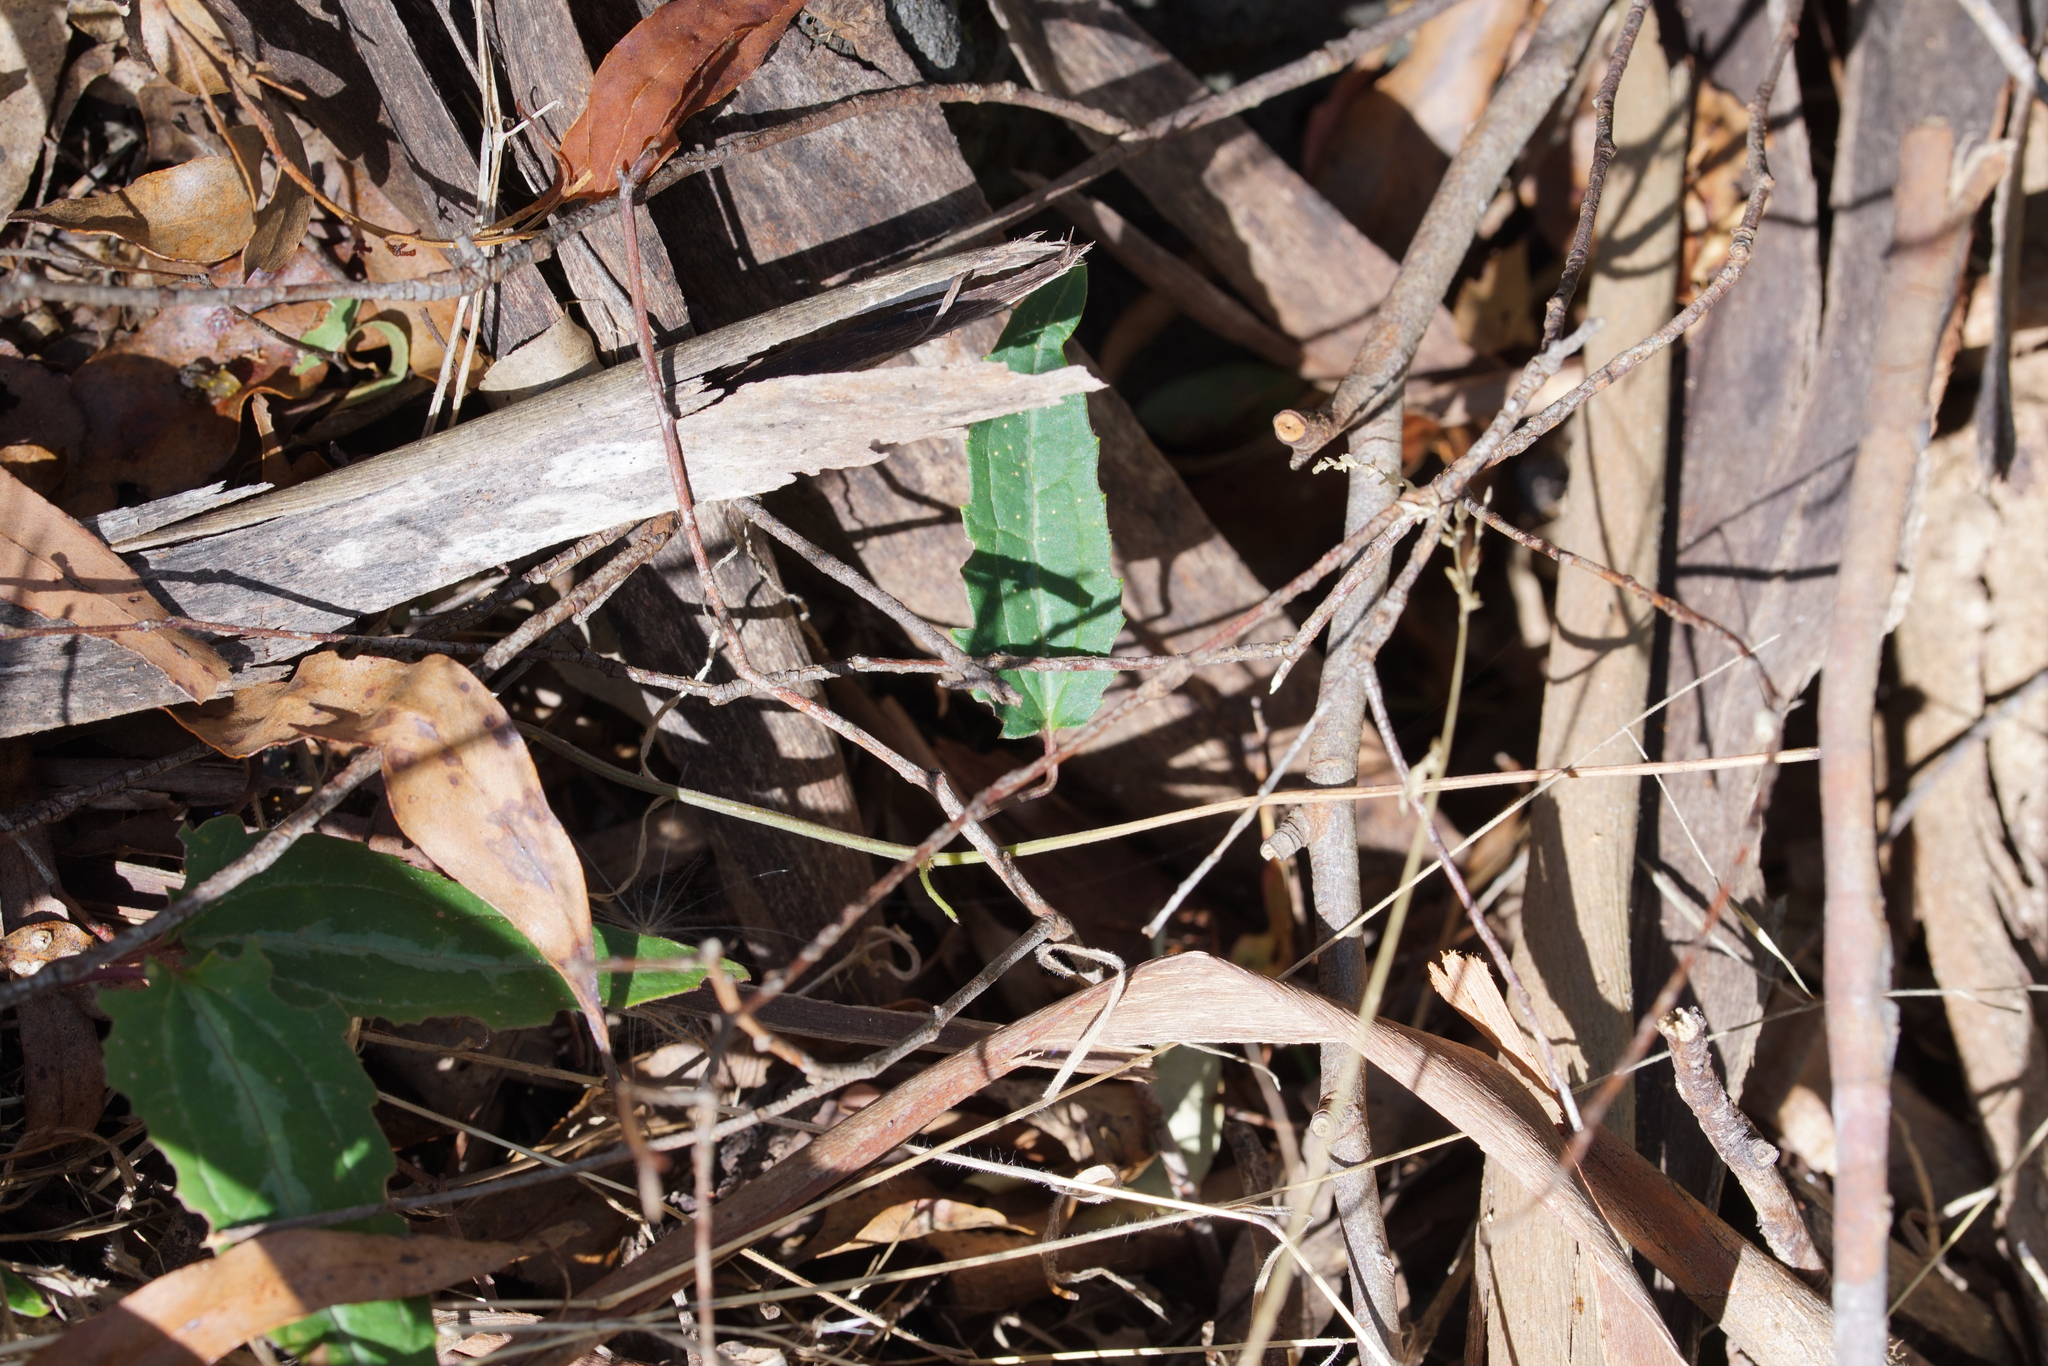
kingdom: Plantae
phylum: Tracheophyta
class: Magnoliopsida
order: Ranunculales
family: Ranunculaceae
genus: Clematis
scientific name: Clematis aristata
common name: Mountain clematis
